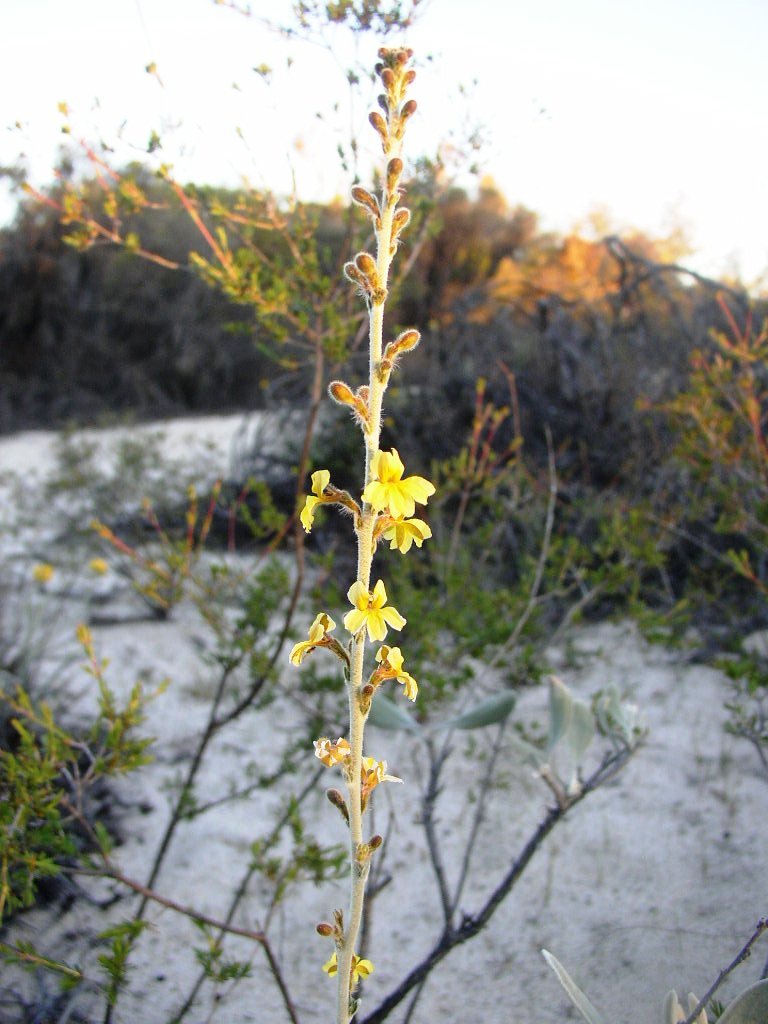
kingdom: Plantae
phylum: Tracheophyta
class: Magnoliopsida
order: Asterales
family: Goodeniaceae
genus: Goodenia
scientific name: Goodenia reinwardtii
